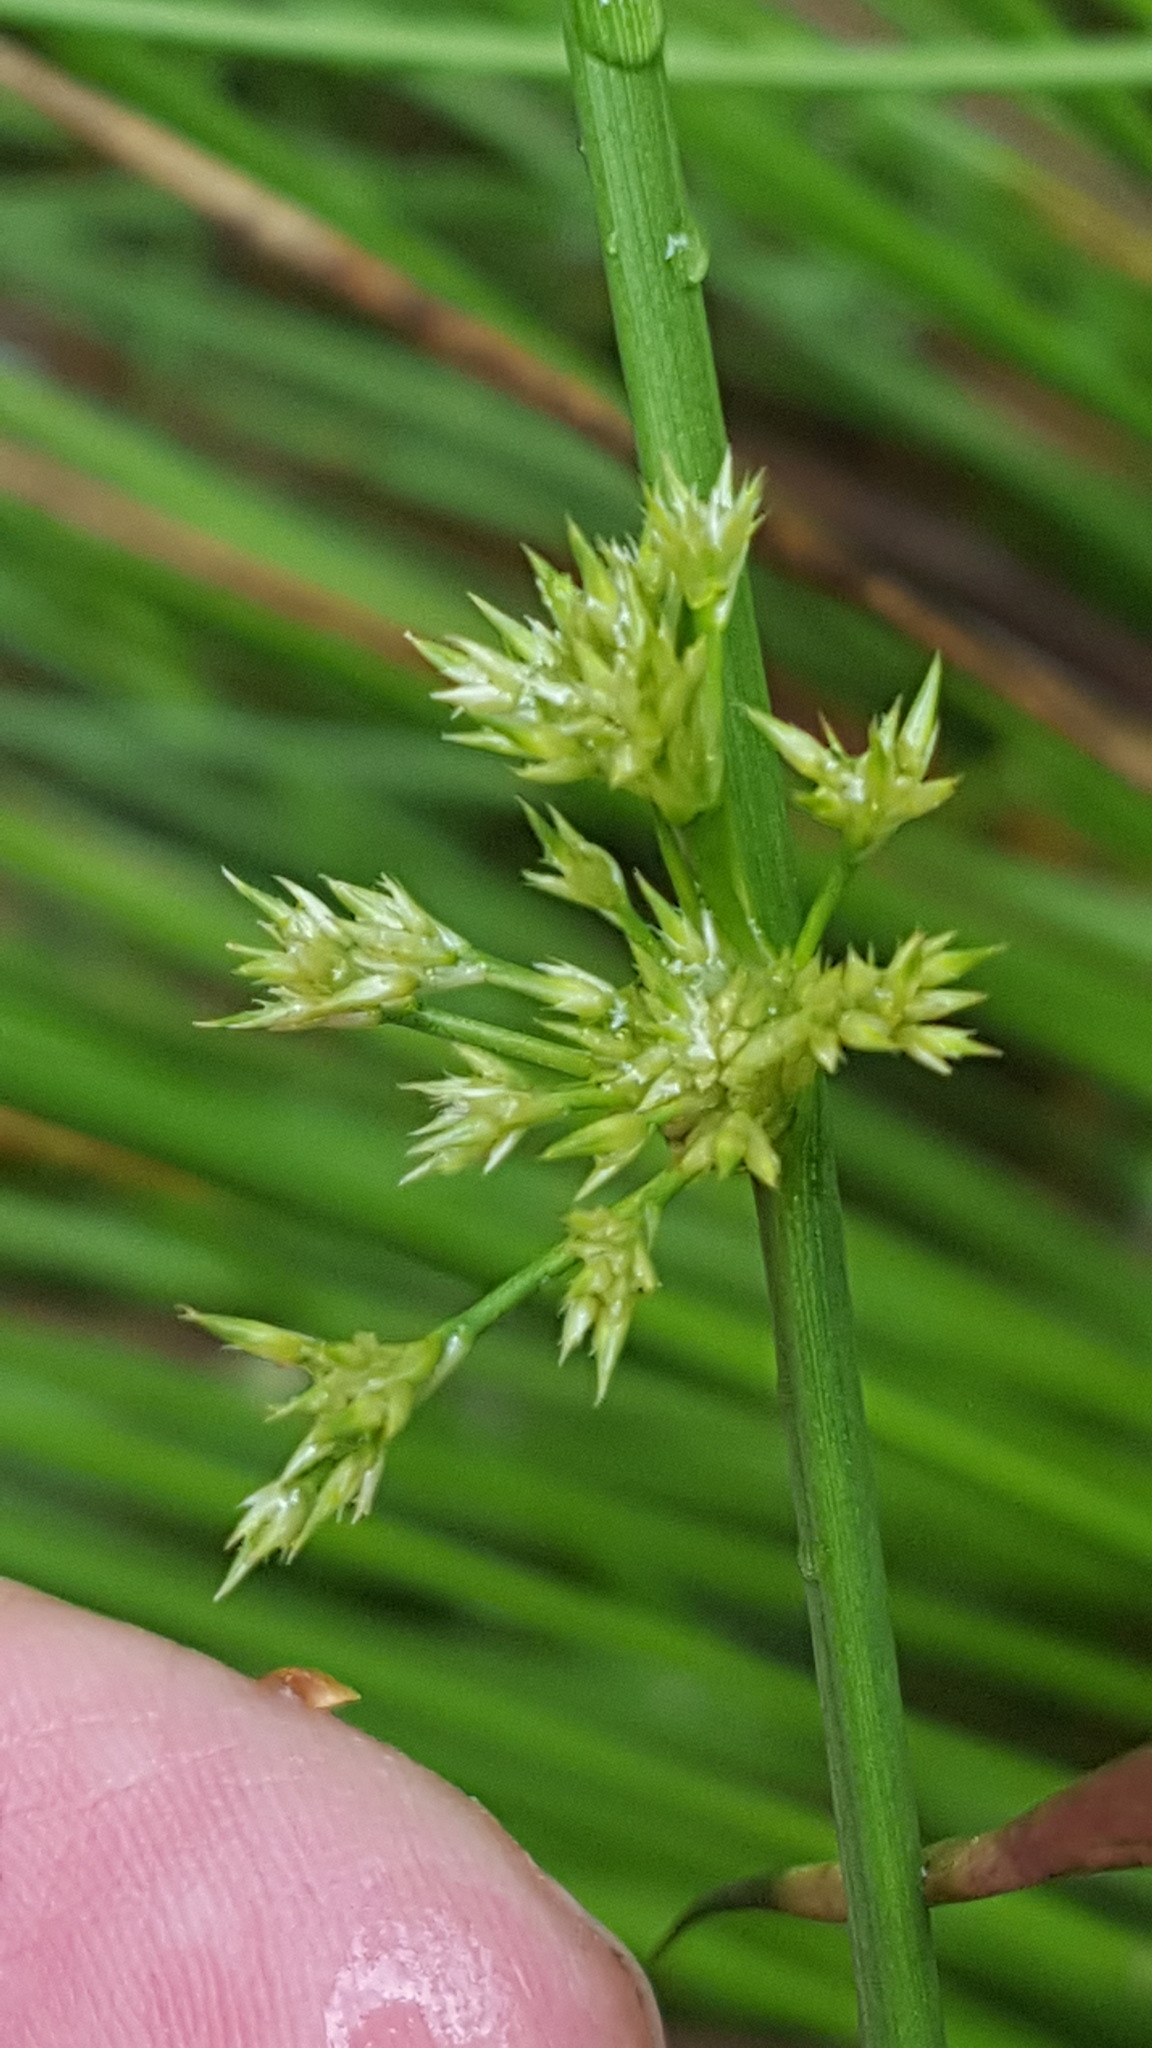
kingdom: Plantae
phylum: Tracheophyta
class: Liliopsida
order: Poales
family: Juncaceae
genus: Juncus
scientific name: Juncus effusus
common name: Soft rush
